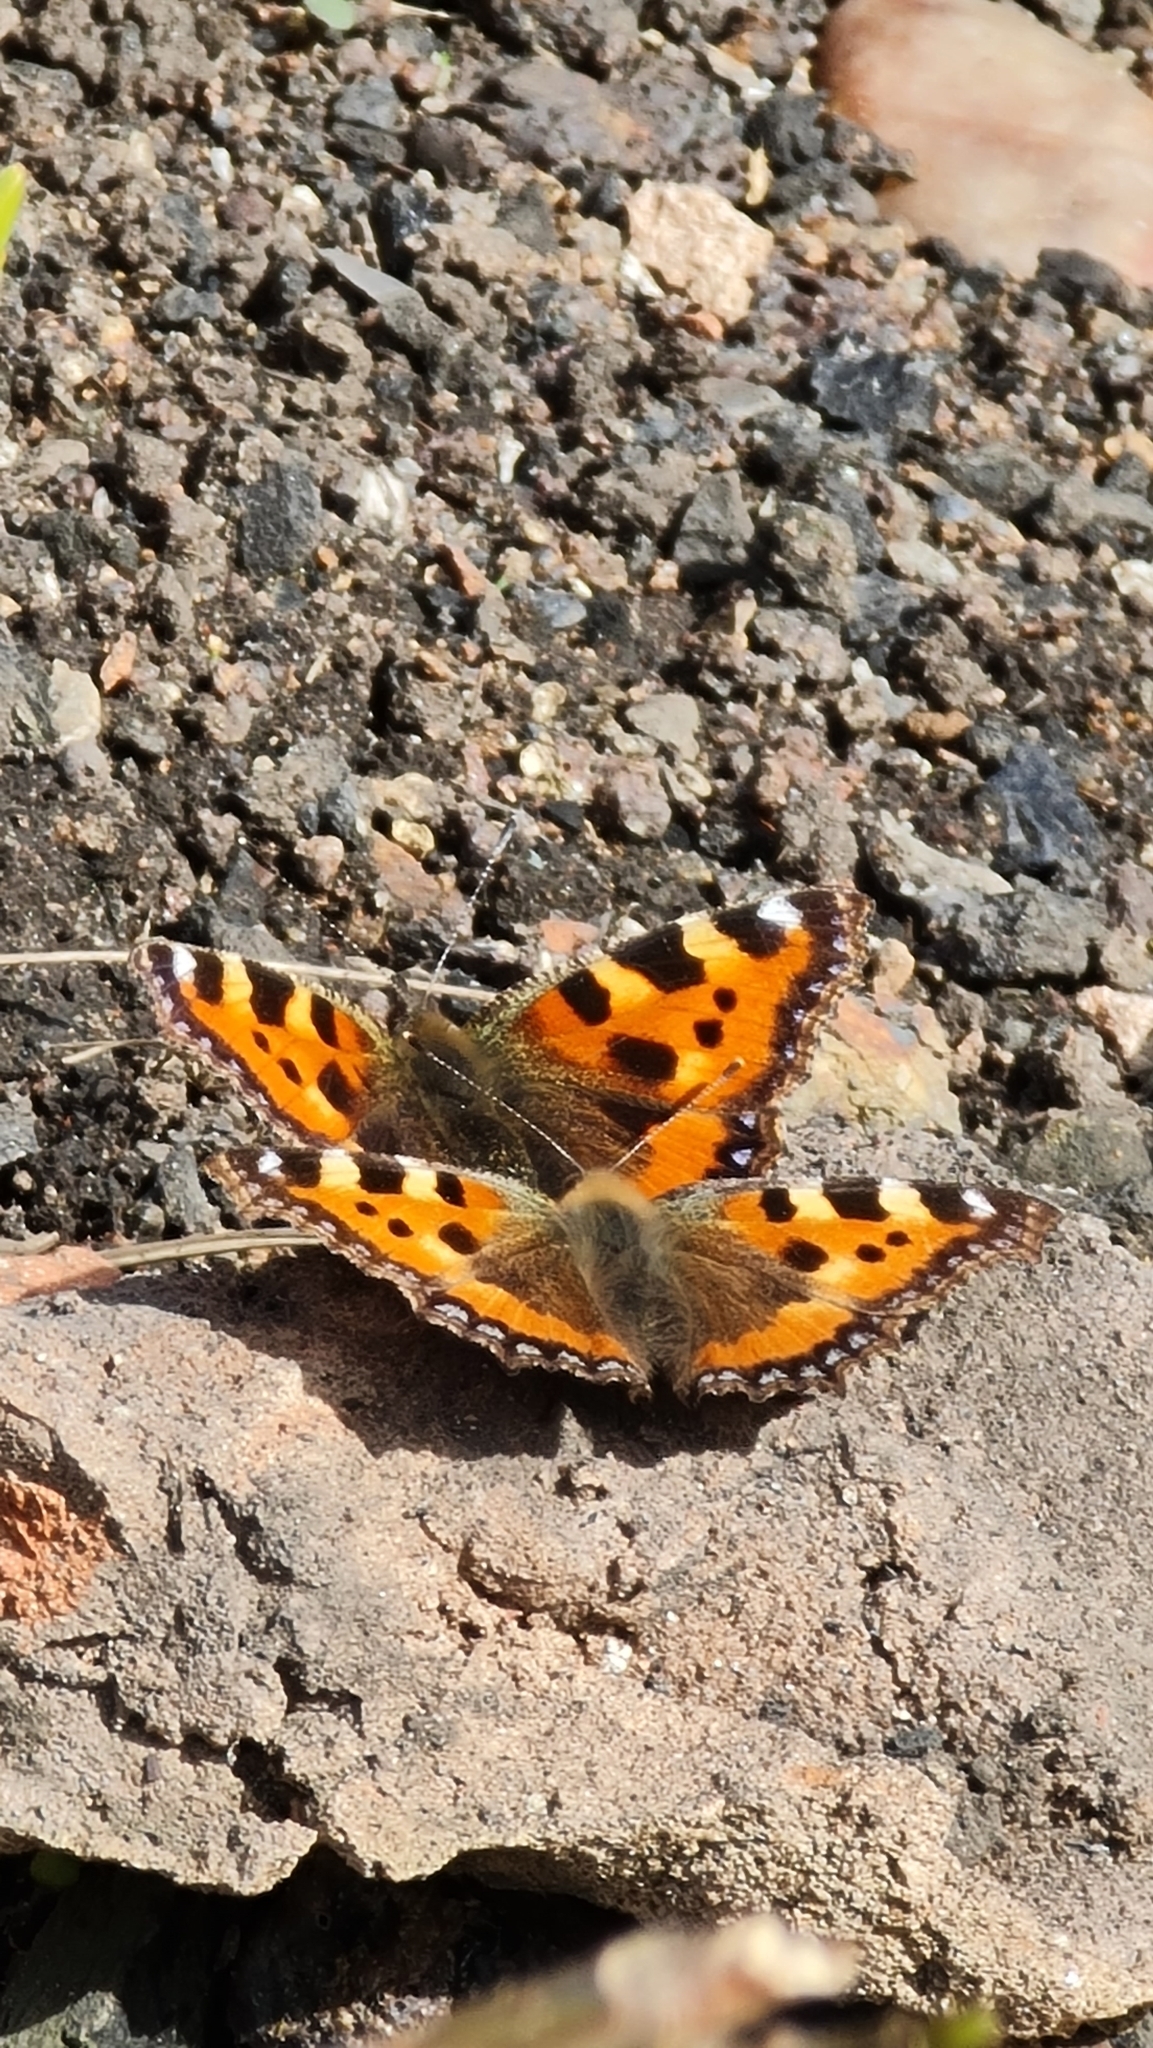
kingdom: Animalia
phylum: Arthropoda
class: Insecta
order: Lepidoptera
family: Nymphalidae
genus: Aglais
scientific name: Aglais urticae
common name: Small tortoiseshell
